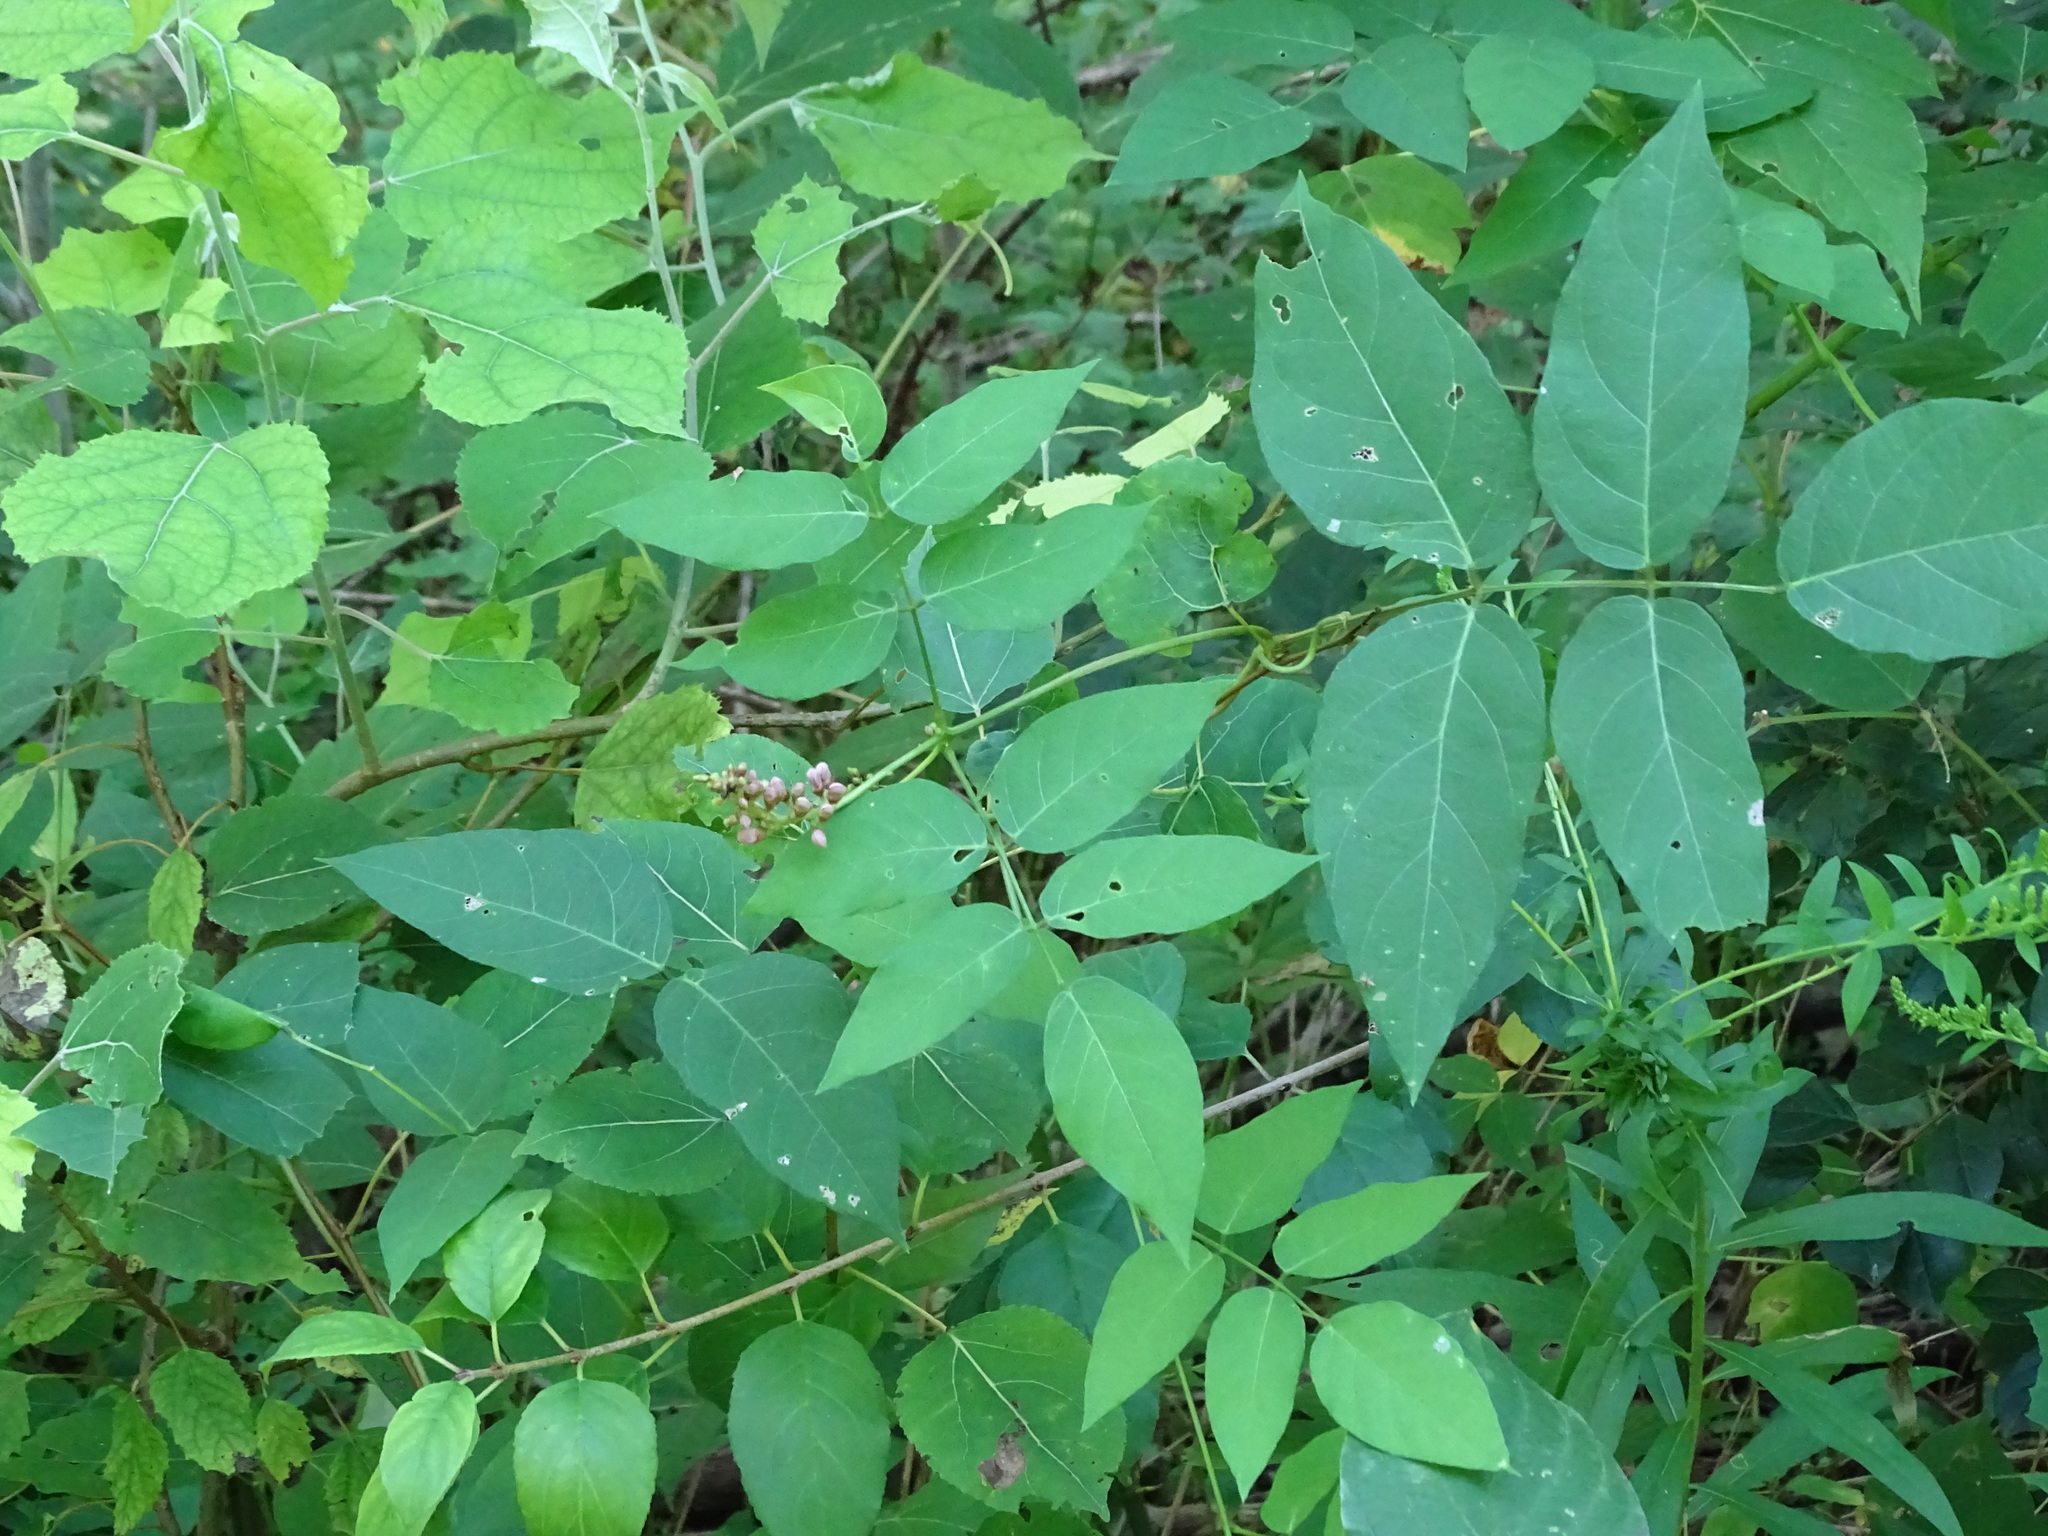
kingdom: Plantae
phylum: Tracheophyta
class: Magnoliopsida
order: Fabales
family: Fabaceae
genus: Apios
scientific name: Apios americana
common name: American potato-bean
